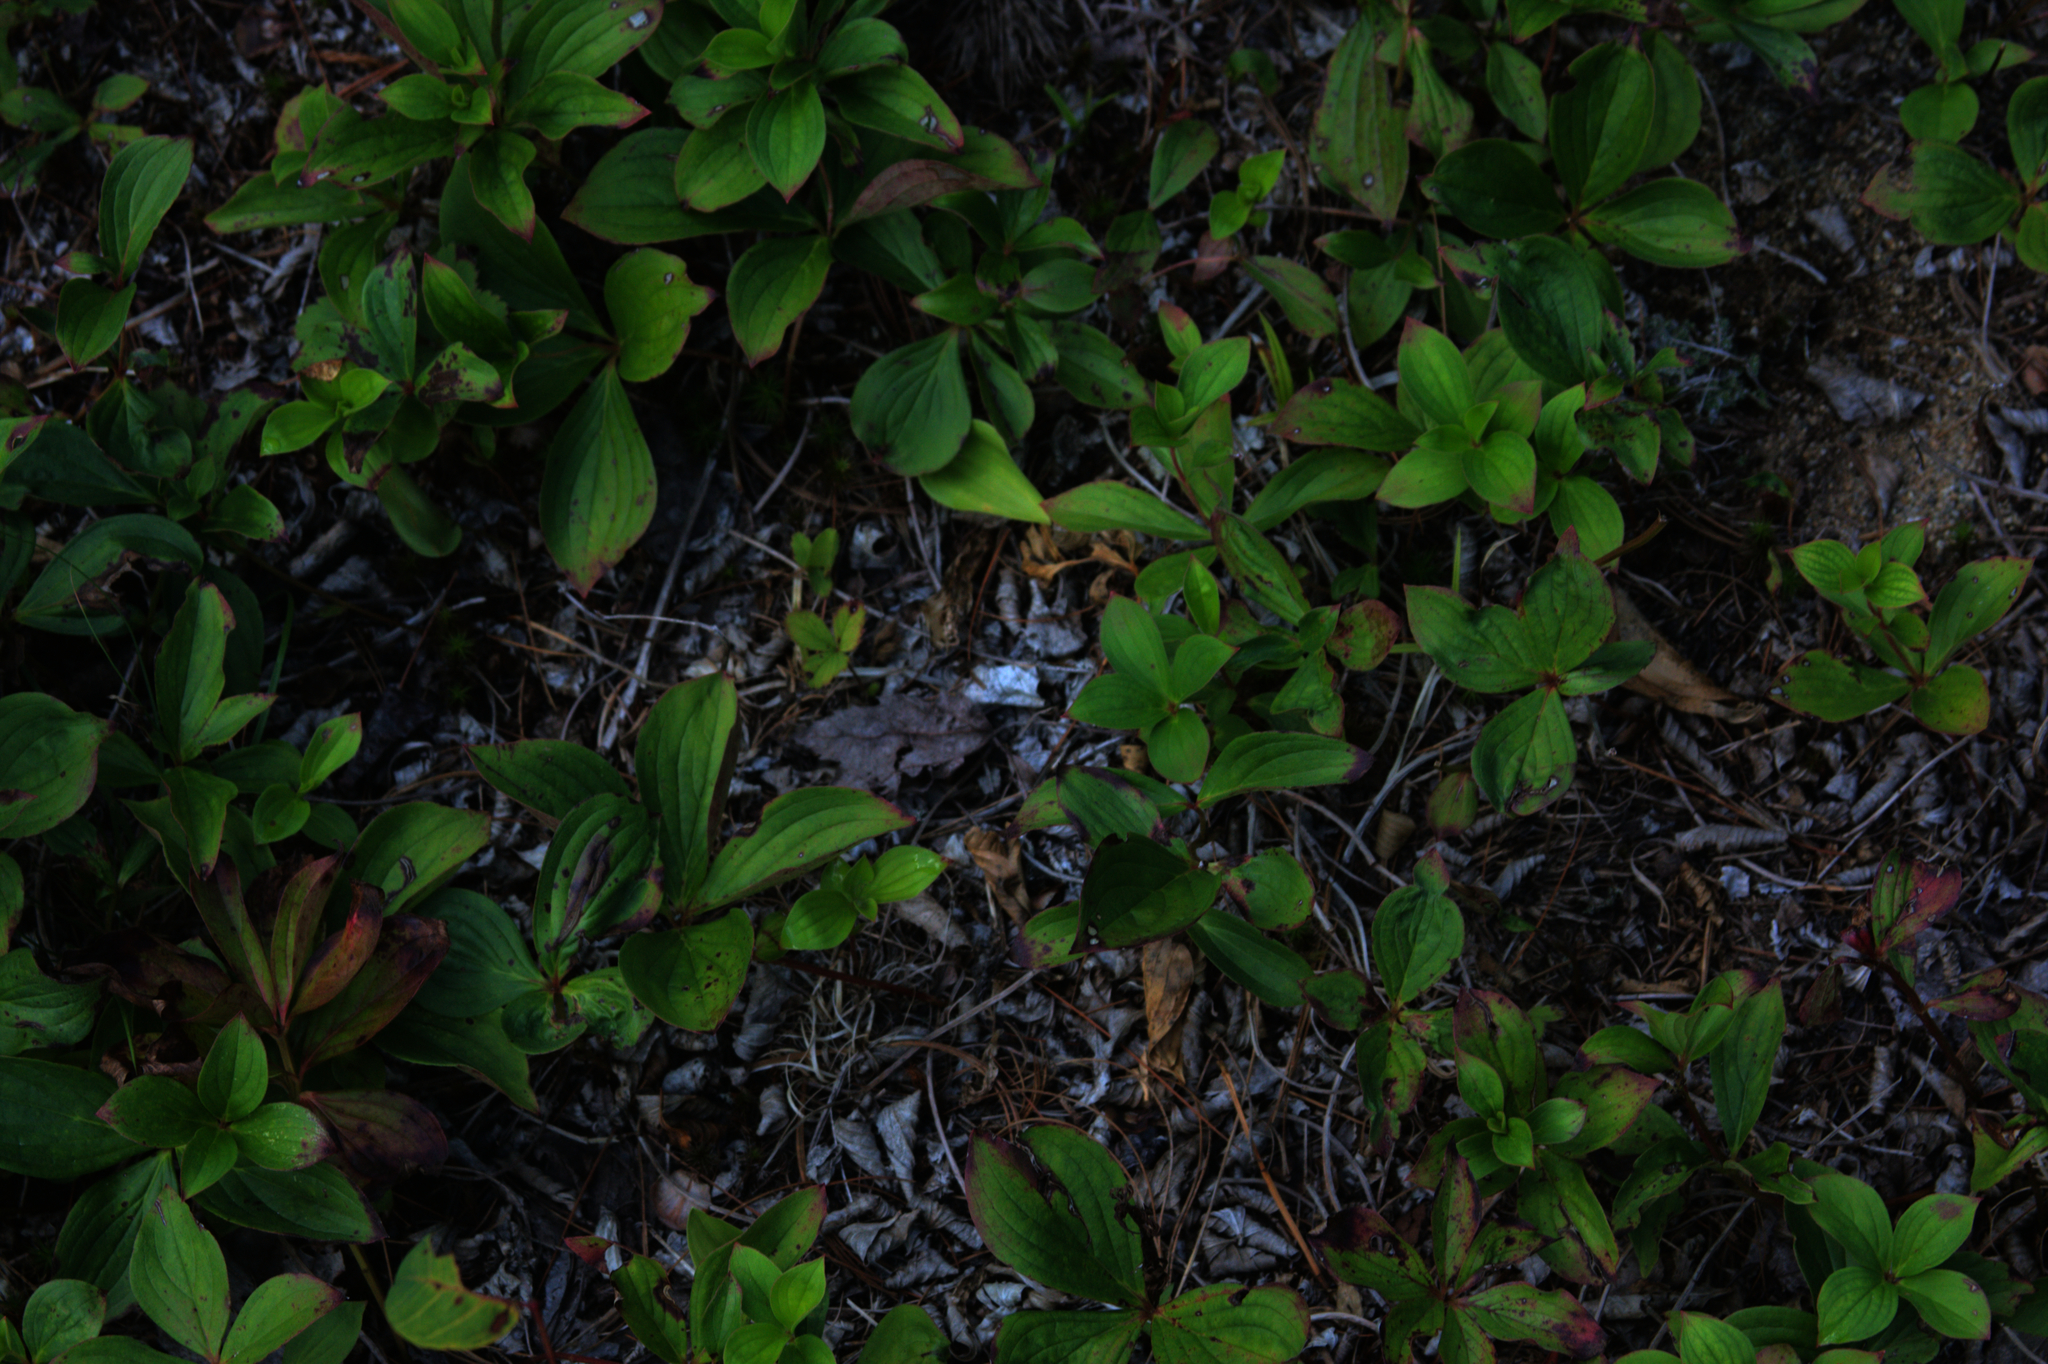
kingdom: Plantae
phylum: Tracheophyta
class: Magnoliopsida
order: Cornales
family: Cornaceae
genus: Cornus
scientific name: Cornus canadensis
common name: Creeping dogwood
